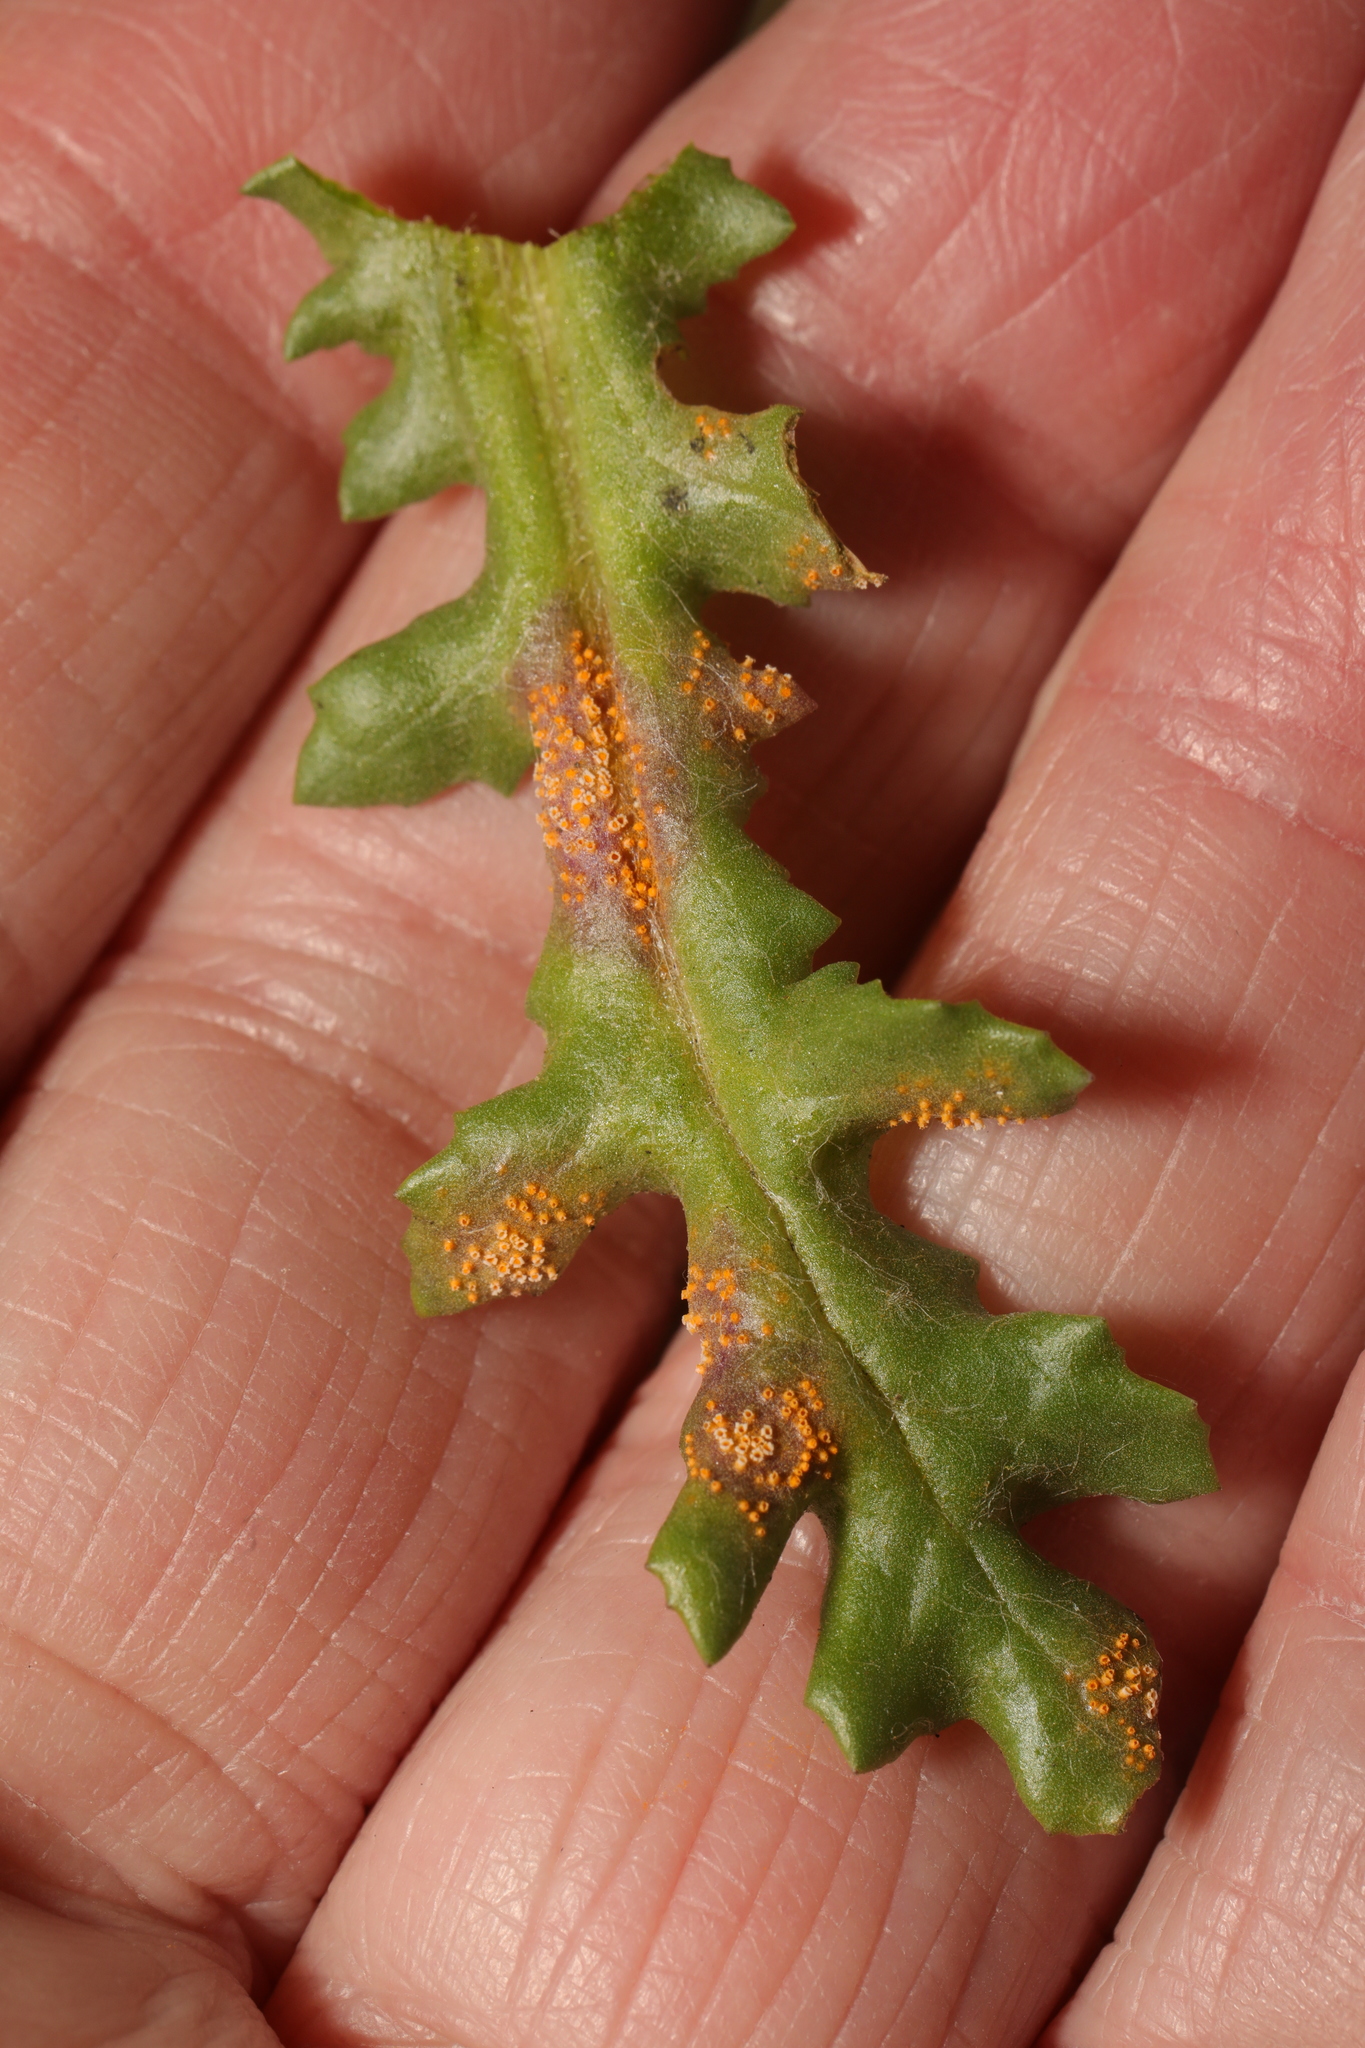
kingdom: Fungi
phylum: Basidiomycota
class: Pucciniomycetes
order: Pucciniales
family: Pucciniaceae
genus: Puccinia
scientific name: Puccinia lagenophorae
